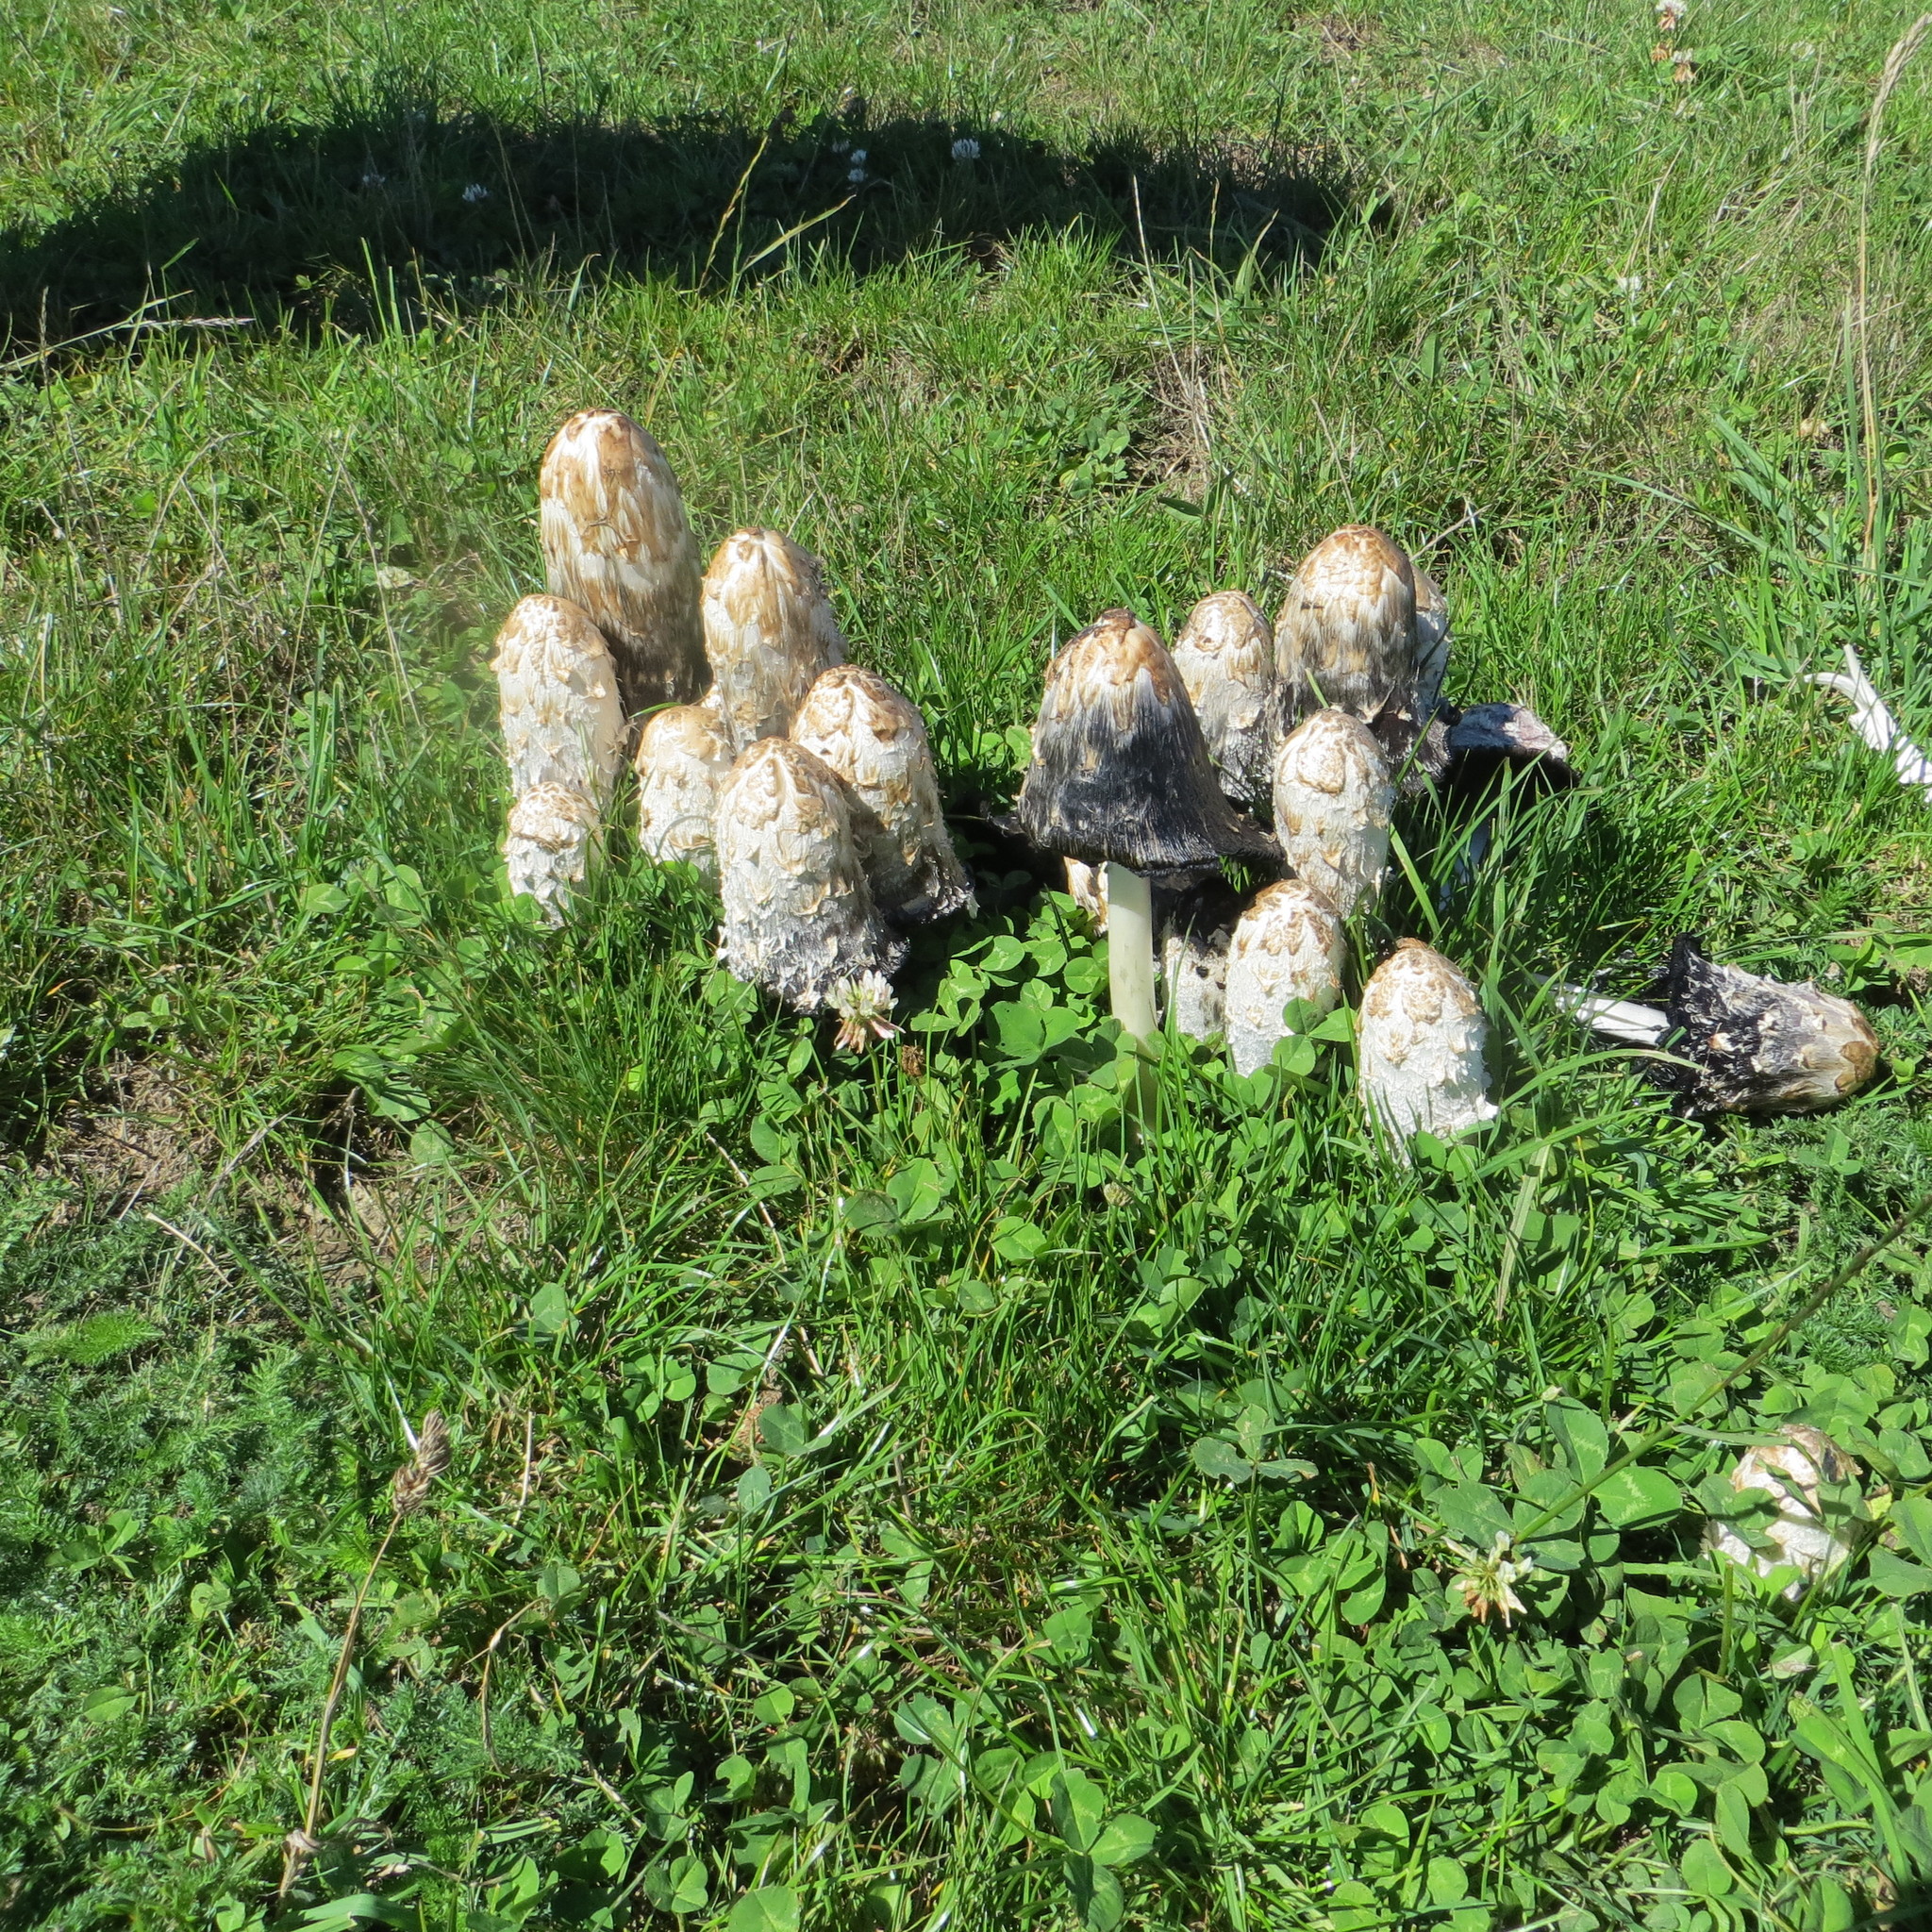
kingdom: Fungi
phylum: Basidiomycota
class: Agaricomycetes
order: Agaricales
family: Agaricaceae
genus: Coprinus
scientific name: Coprinus comatus
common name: Lawyer's wig
